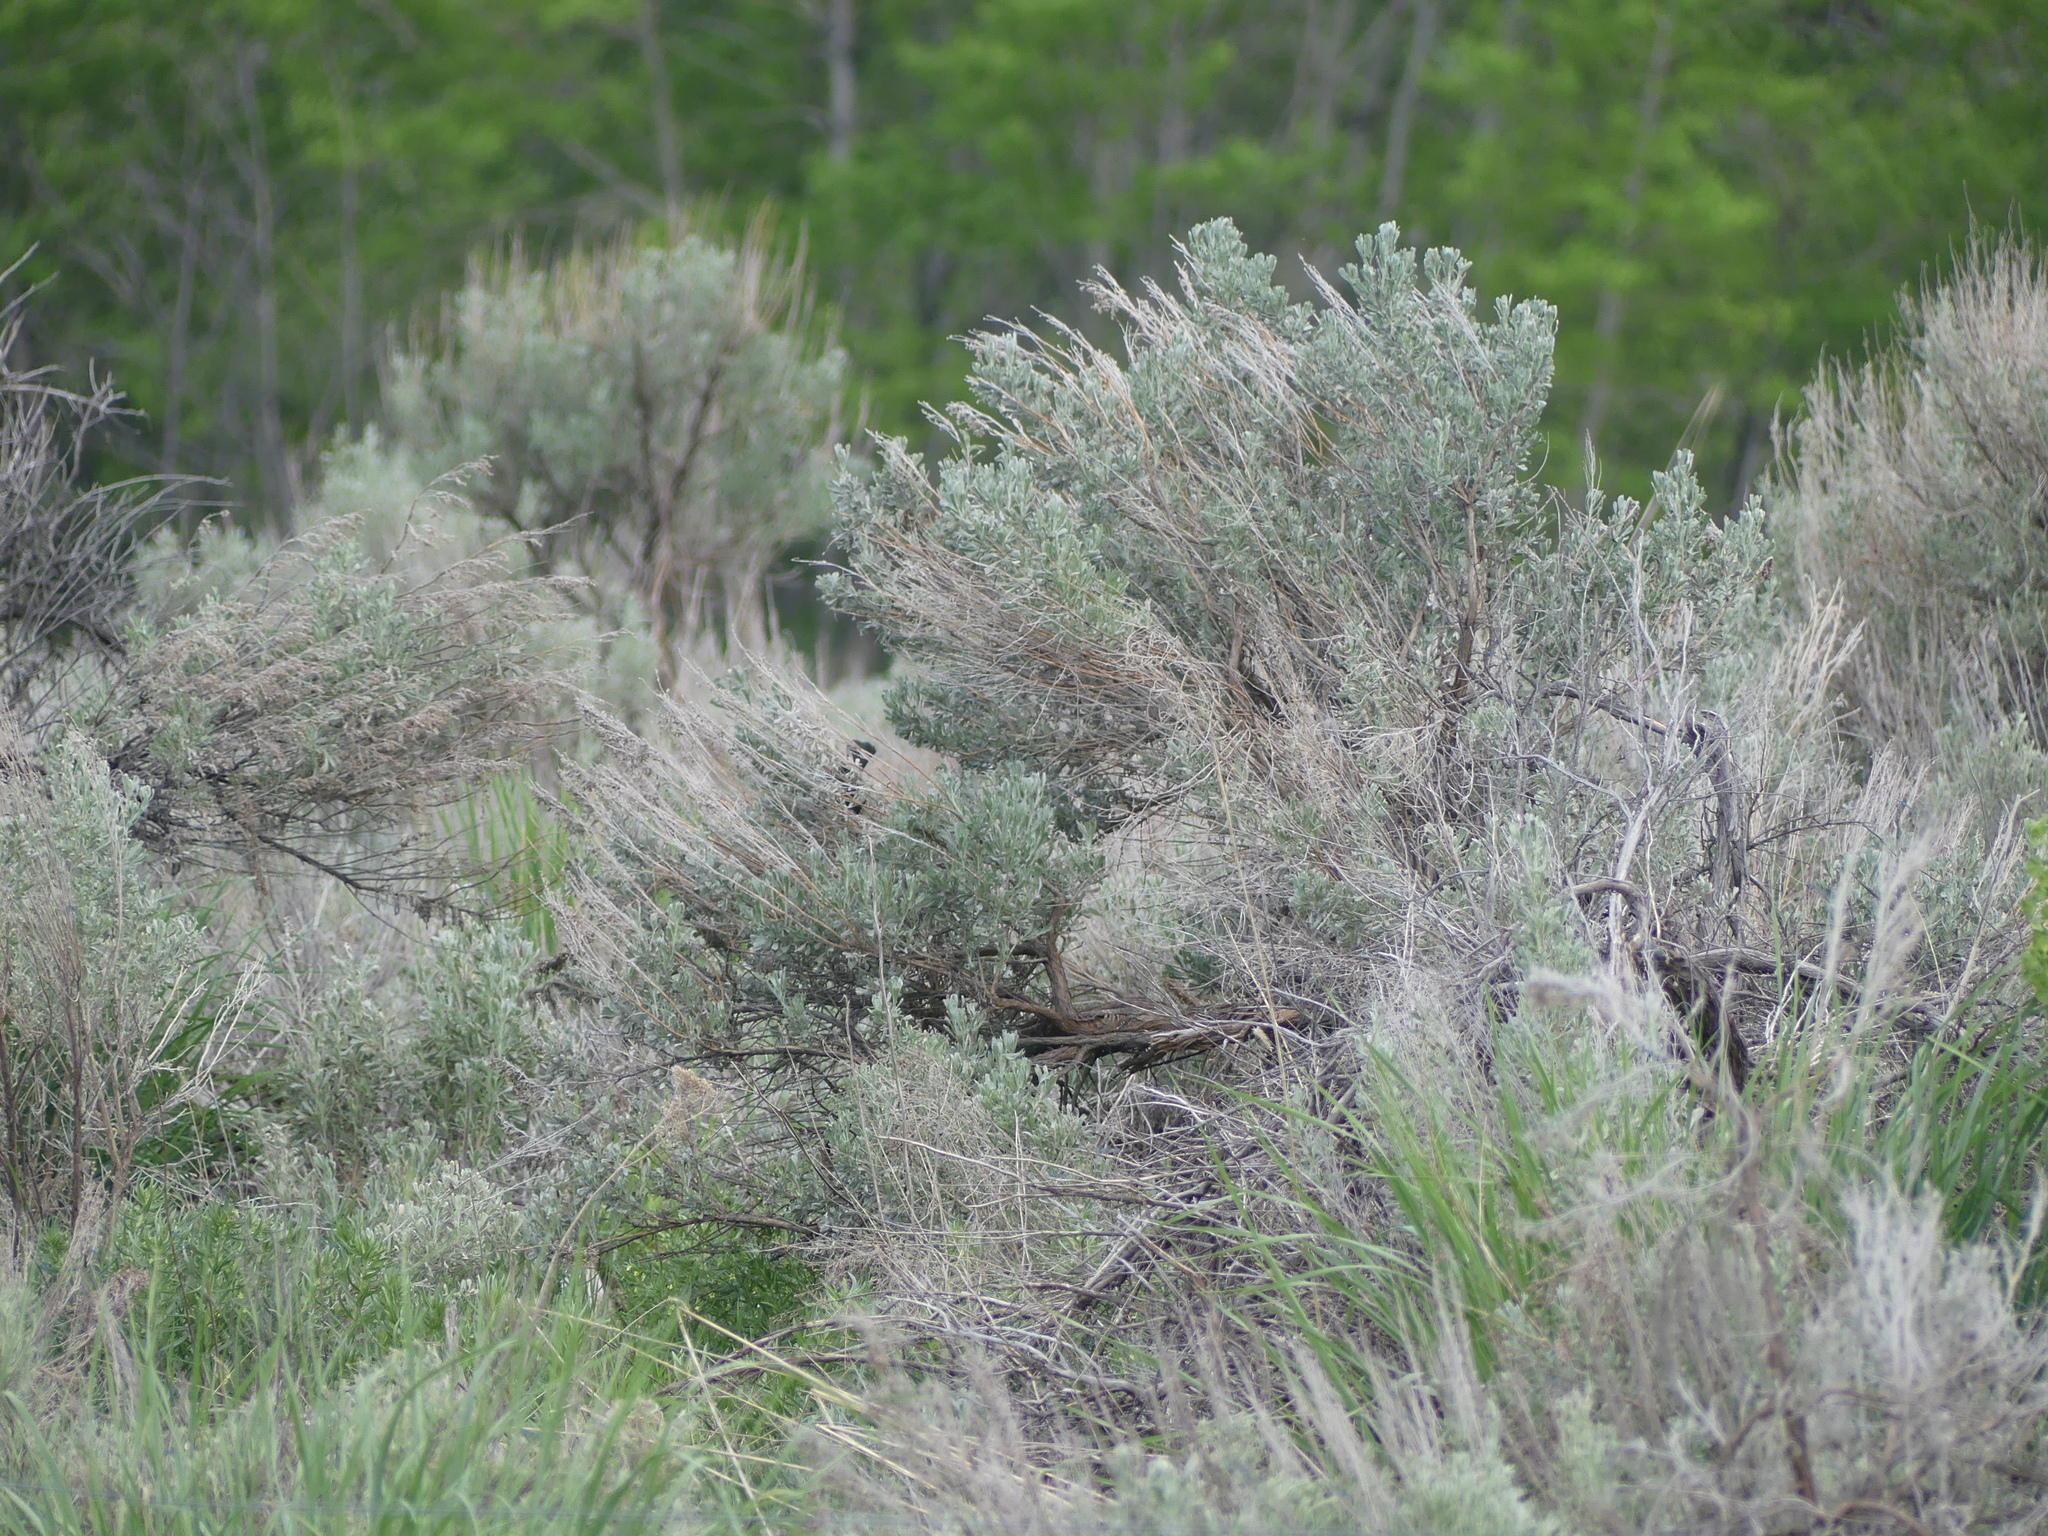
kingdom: Plantae
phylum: Tracheophyta
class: Magnoliopsida
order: Asterales
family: Asteraceae
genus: Artemisia
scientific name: Artemisia tridentata
